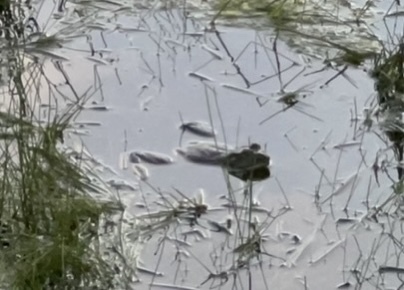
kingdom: Animalia
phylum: Chordata
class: Amphibia
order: Anura
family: Ranidae
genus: Lithobates
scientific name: Lithobates catesbeianus
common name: American bullfrog
